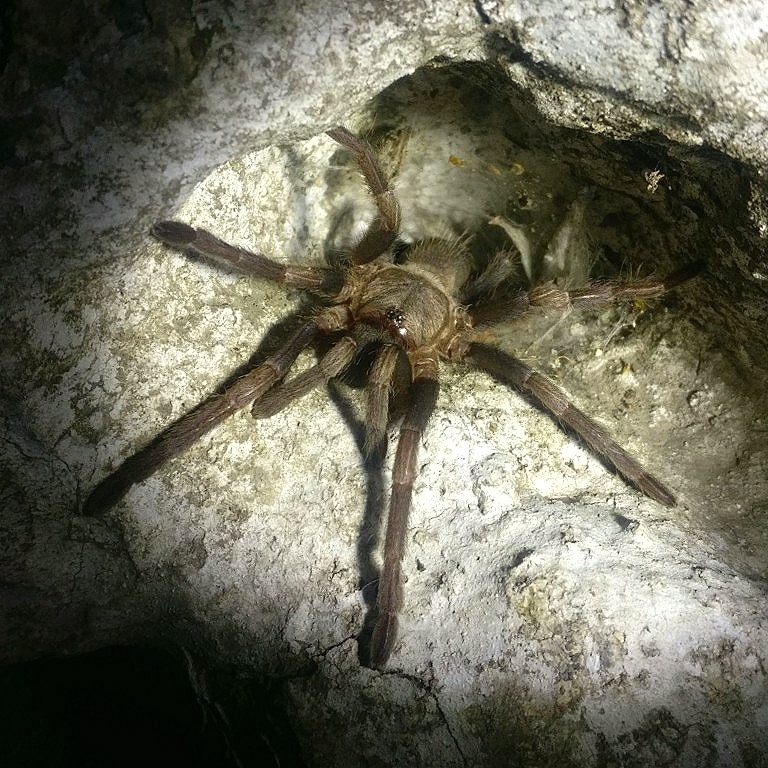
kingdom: Animalia
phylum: Arthropoda
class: Arachnida
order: Araneae
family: Theraphosidae
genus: Haplocosmia
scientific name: Haplocosmia himalayana
